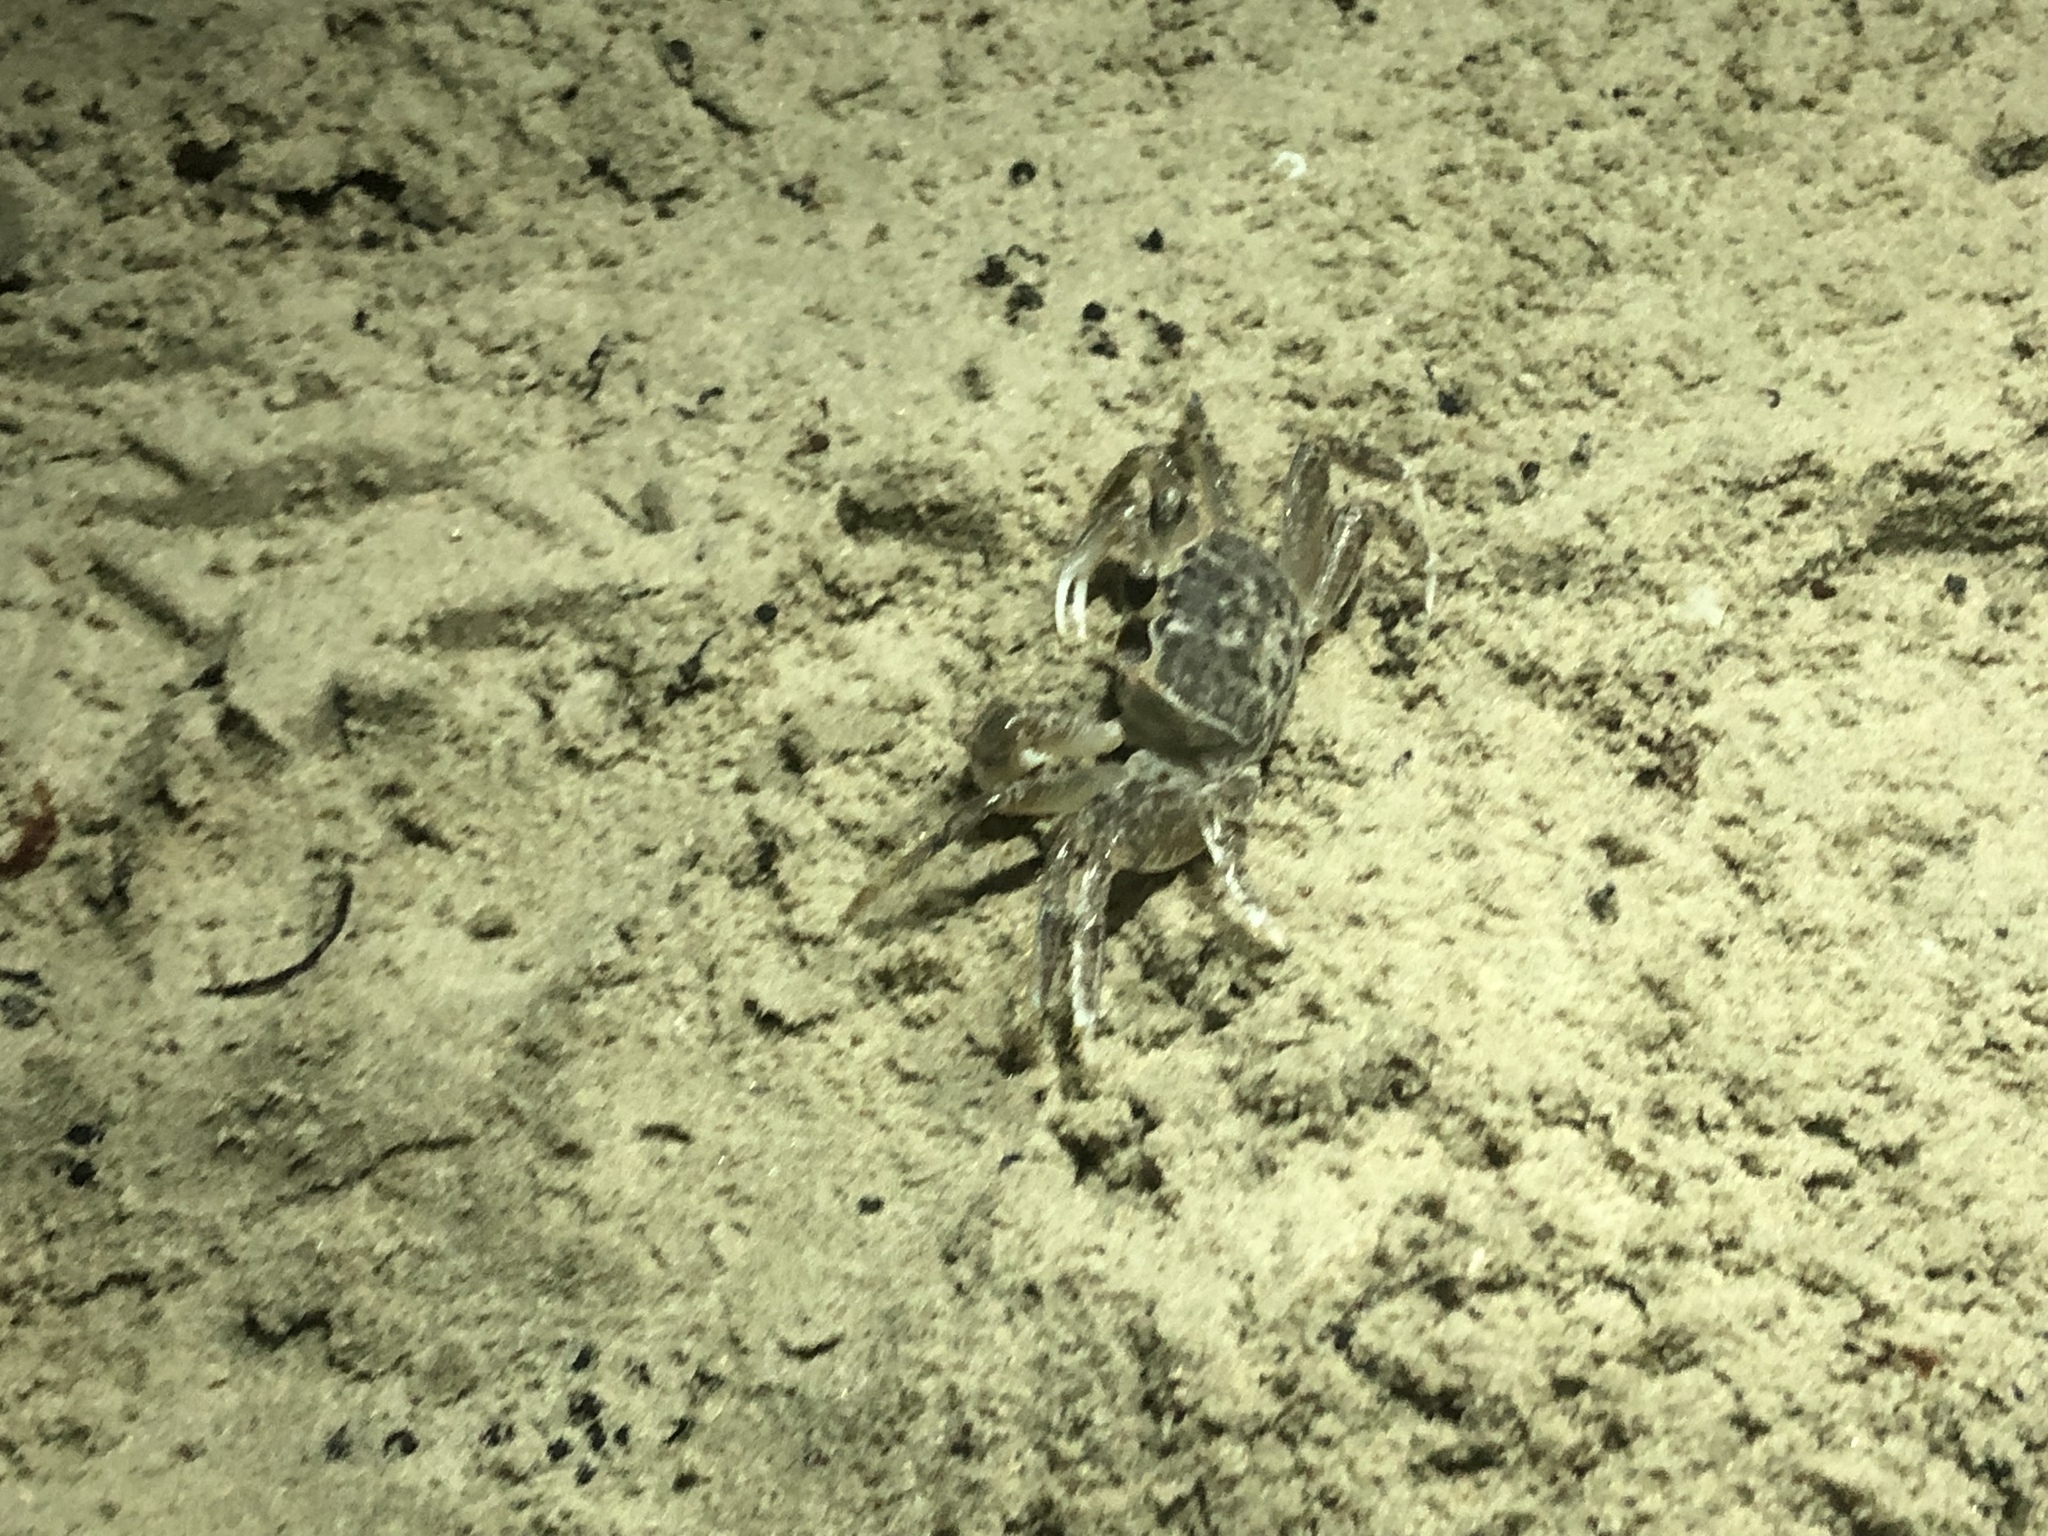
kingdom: Animalia
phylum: Arthropoda
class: Malacostraca
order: Decapoda
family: Ocypodidae
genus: Ocypode
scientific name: Ocypode quadrata
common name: Ghost crab
